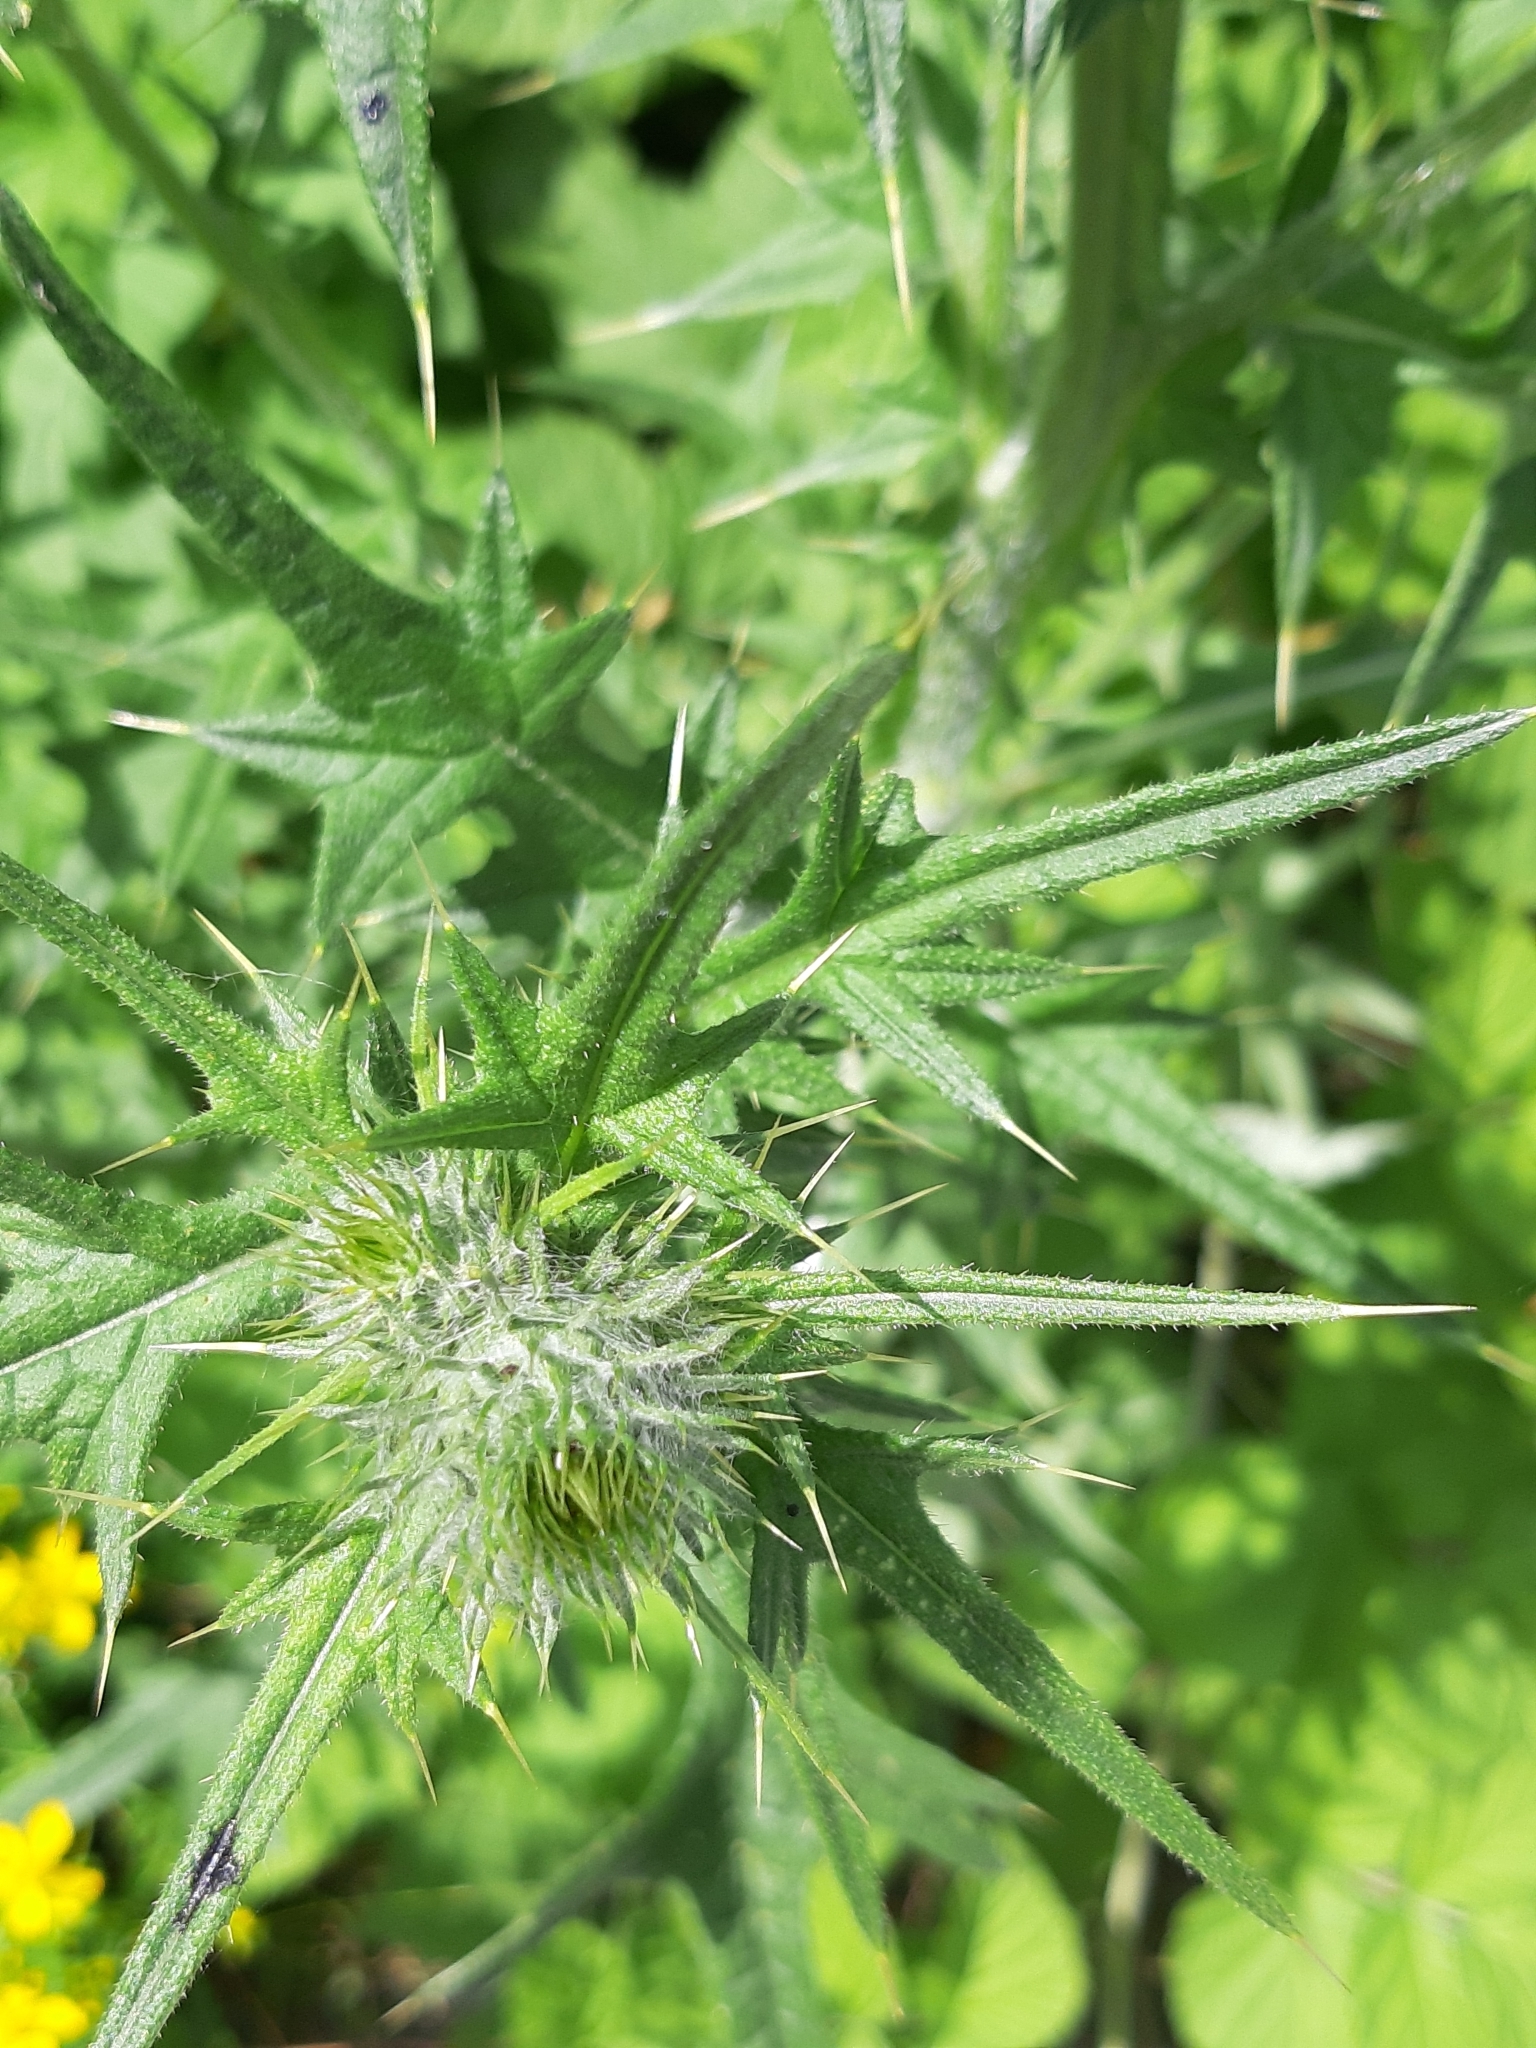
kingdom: Plantae
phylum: Tracheophyta
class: Magnoliopsida
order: Asterales
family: Asteraceae
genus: Cirsium
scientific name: Cirsium vulgare
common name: Bull thistle
